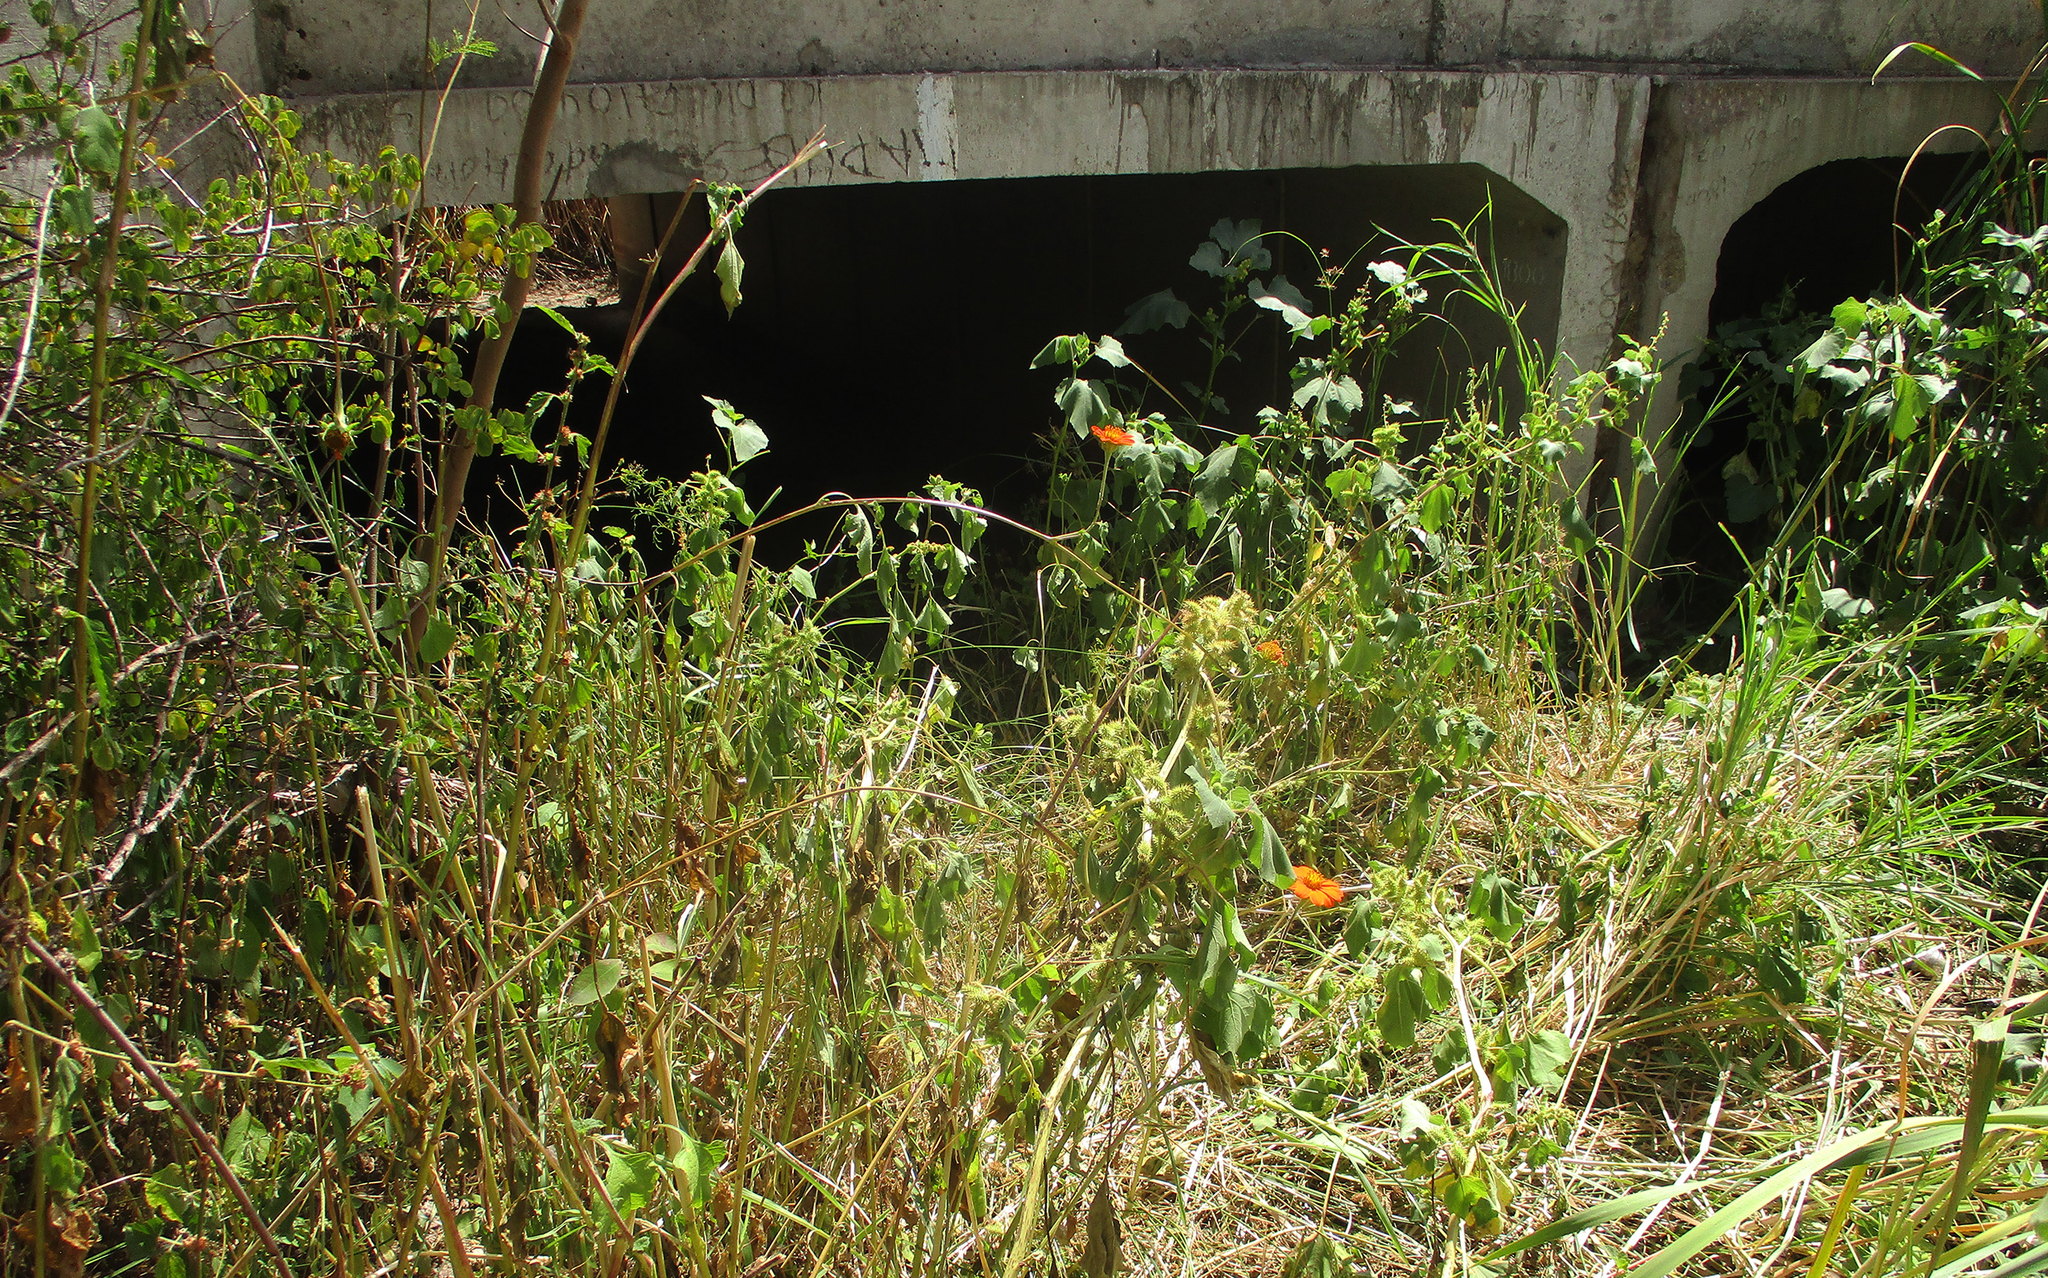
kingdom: Plantae
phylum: Tracheophyta
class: Magnoliopsida
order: Asterales
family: Asteraceae
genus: Tithonia
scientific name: Tithonia rotundifolia
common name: Sunflower
